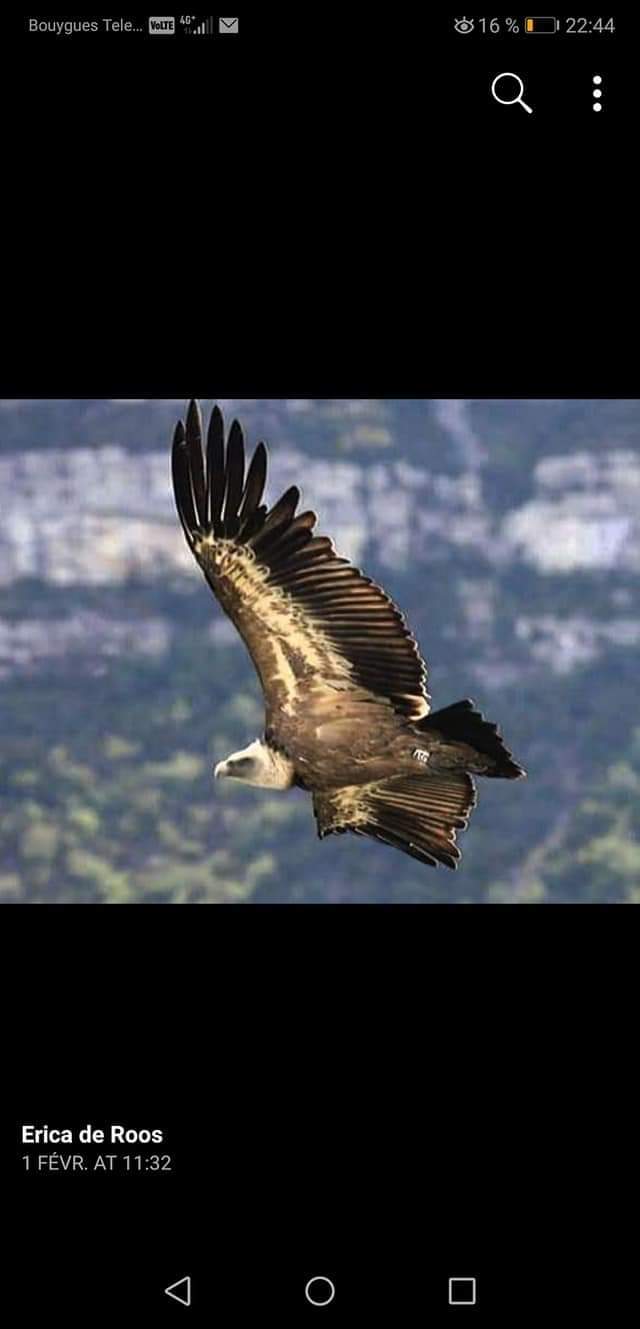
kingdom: Animalia
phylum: Chordata
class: Aves
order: Accipitriformes
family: Accipitridae
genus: Gyps
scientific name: Gyps fulvus
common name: Griffon vulture
